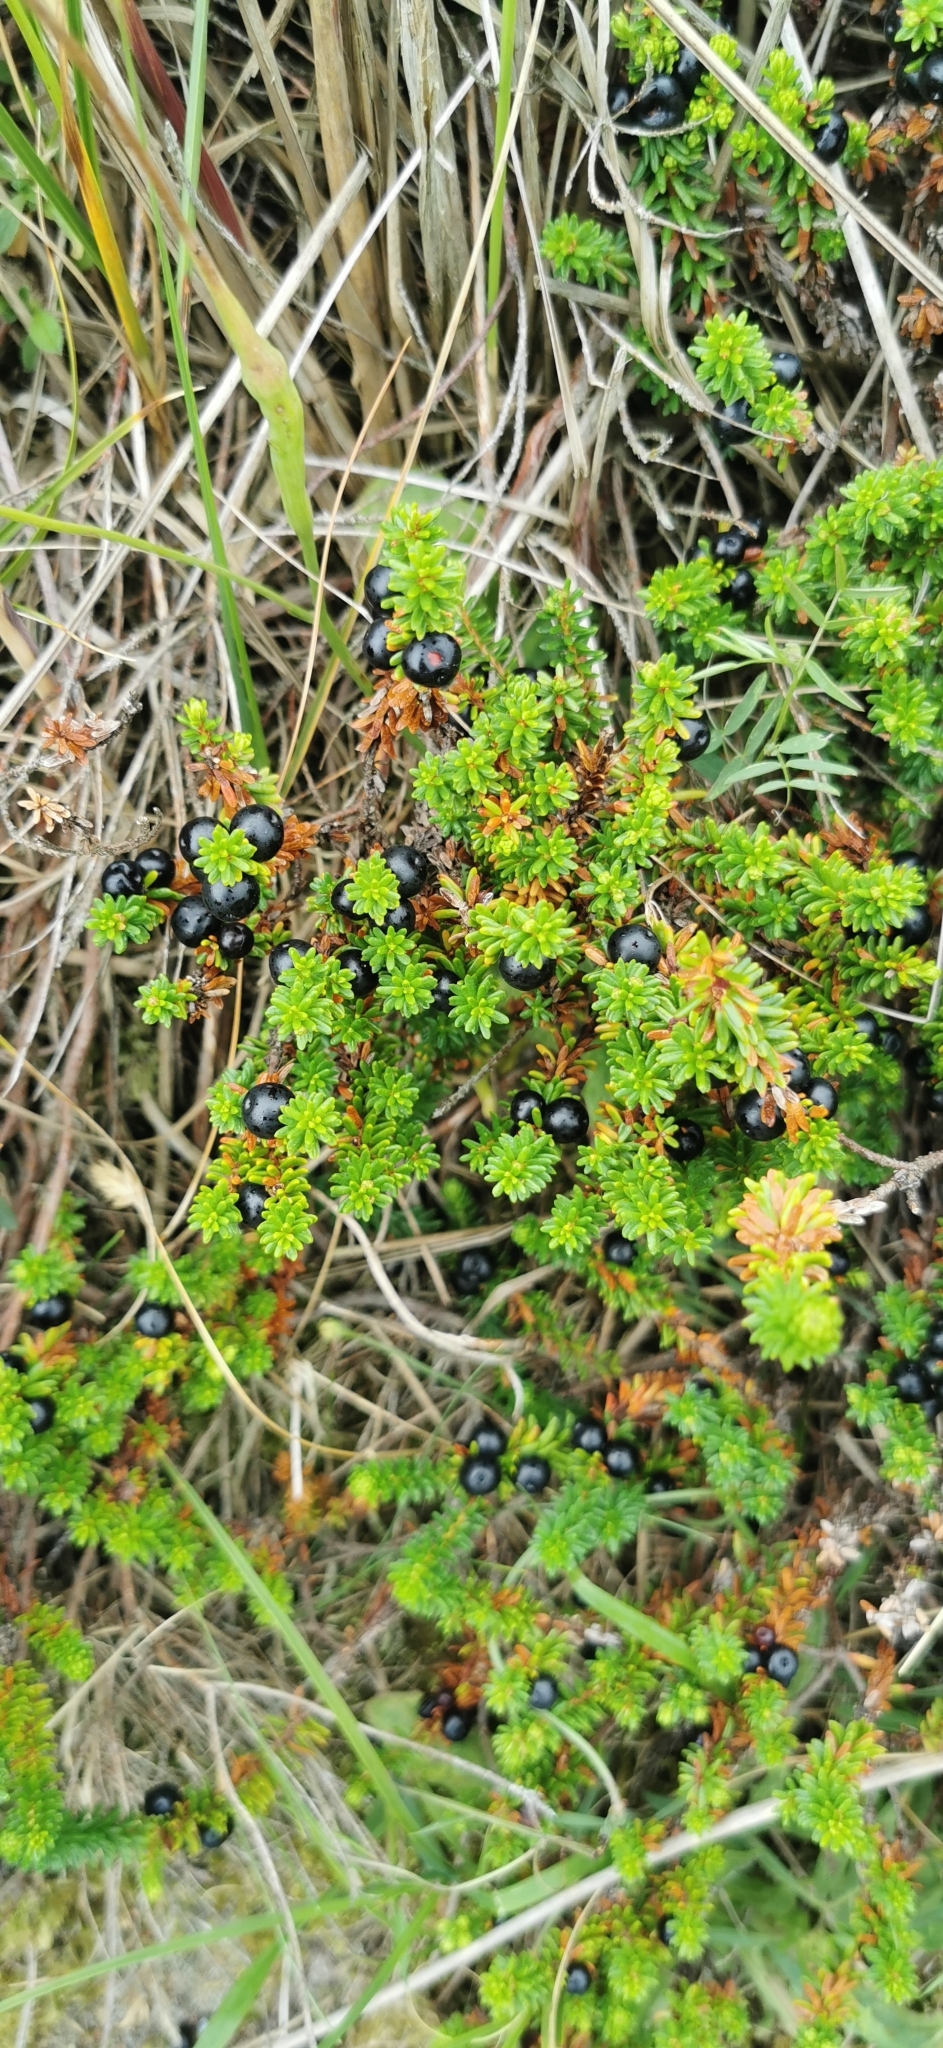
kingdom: Plantae
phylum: Tracheophyta
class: Magnoliopsida
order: Ericales
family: Ericaceae
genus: Empetrum
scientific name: Empetrum nigrum
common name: Black crowberry
